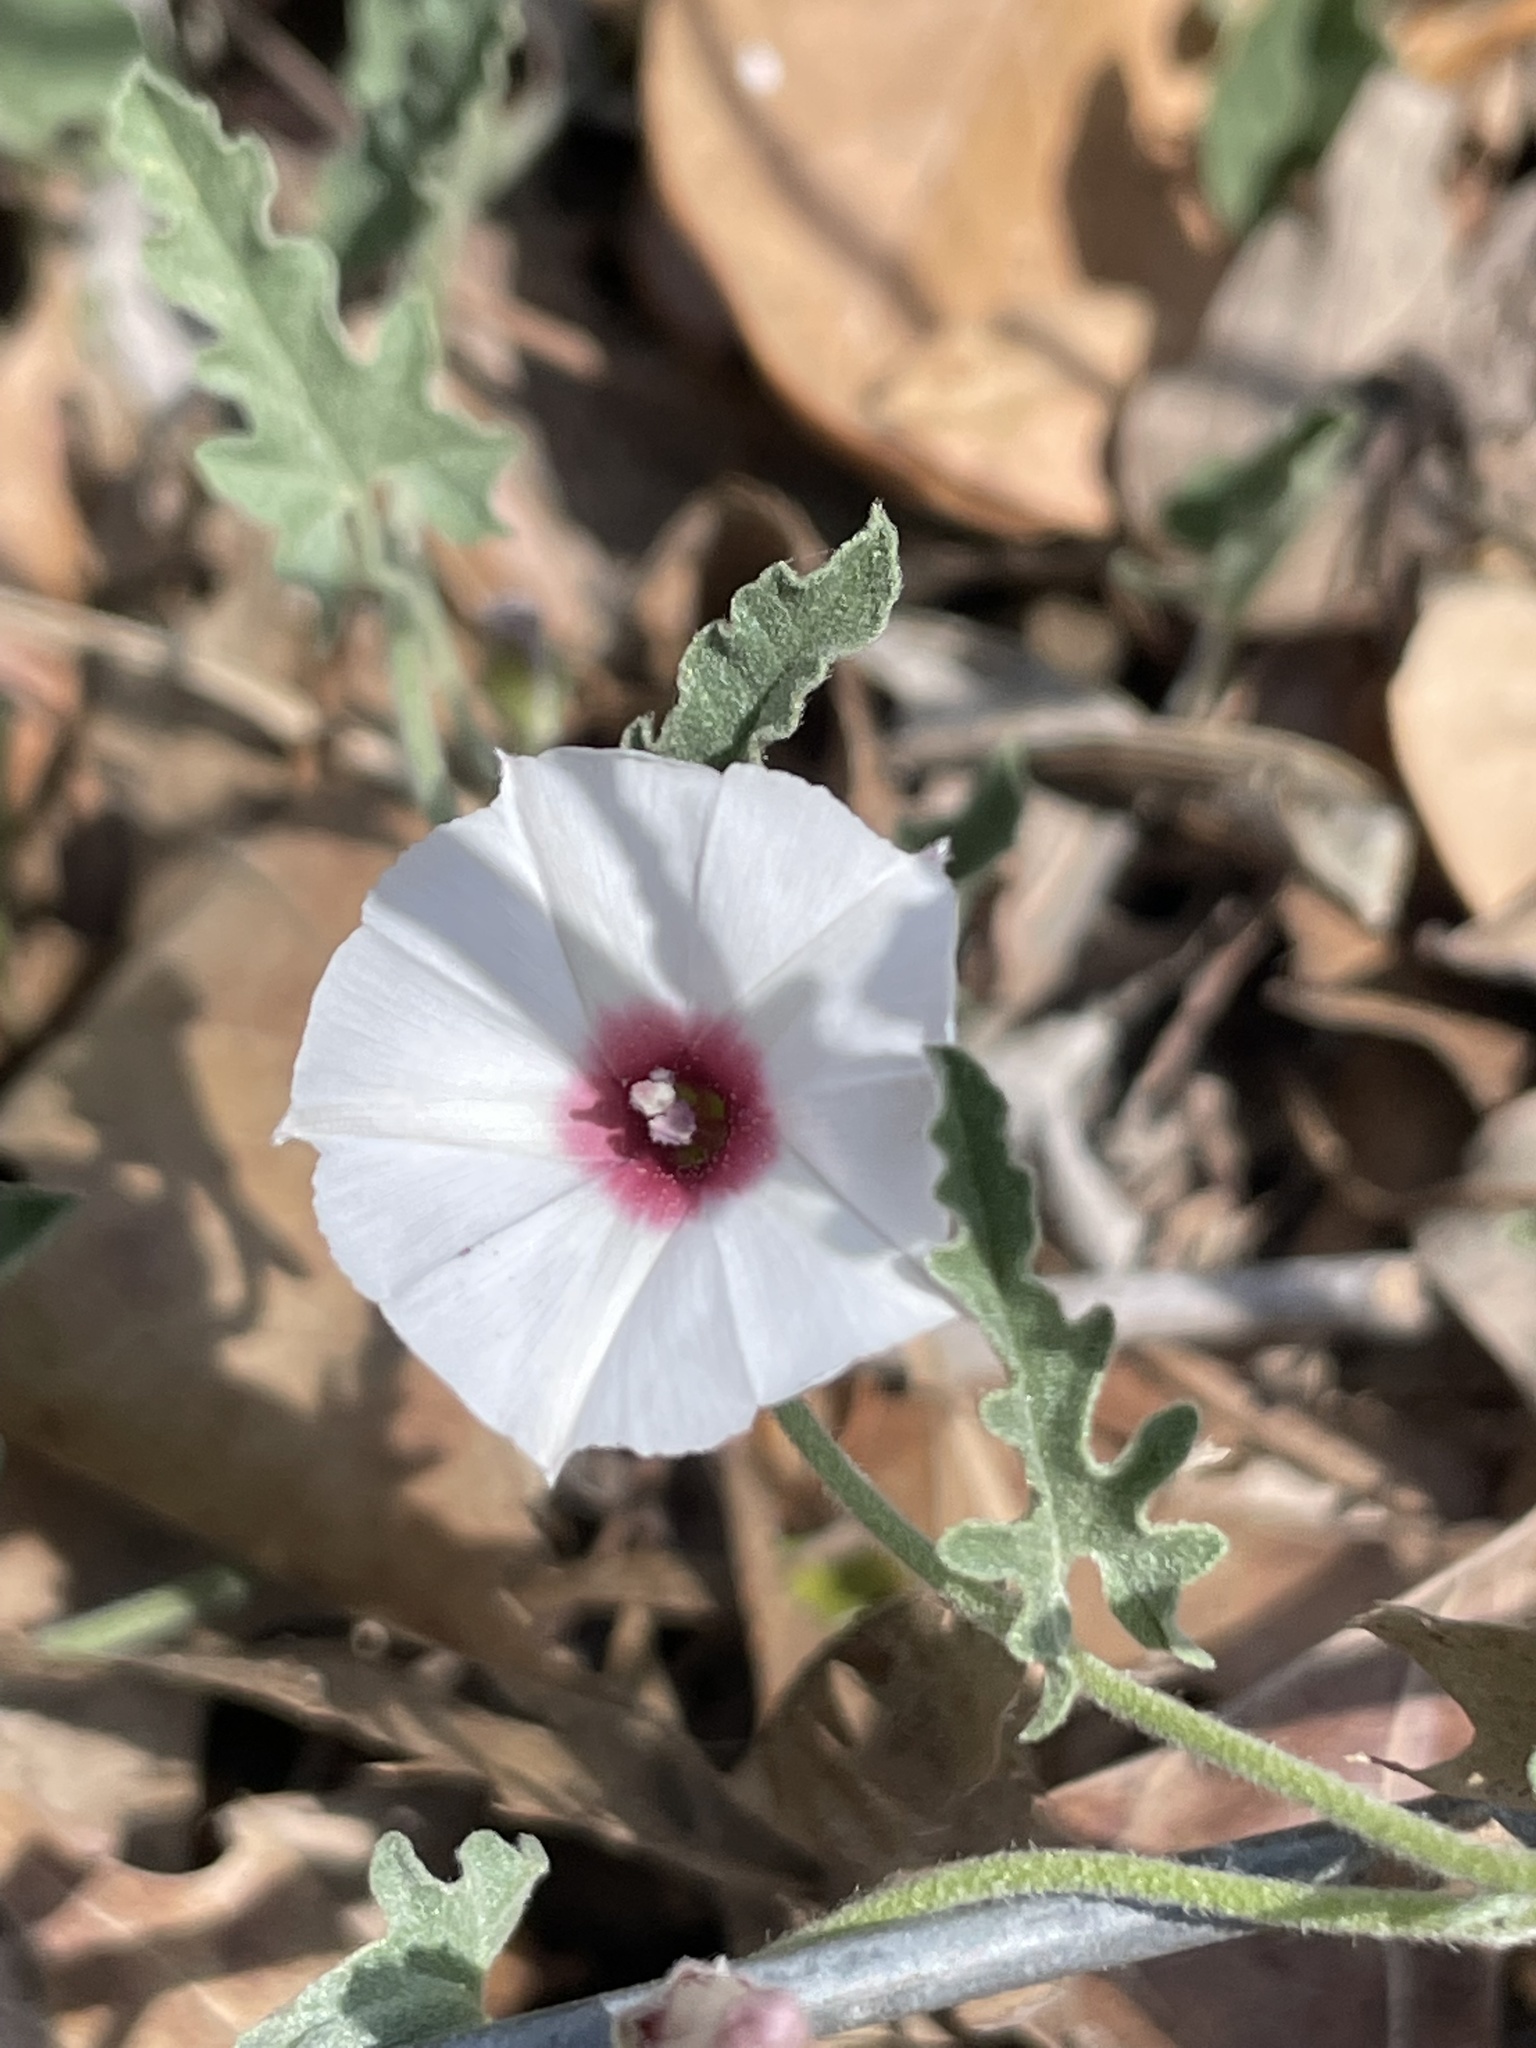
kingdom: Plantae
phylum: Tracheophyta
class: Magnoliopsida
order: Solanales
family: Convolvulaceae
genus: Convolvulus
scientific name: Convolvulus equitans
